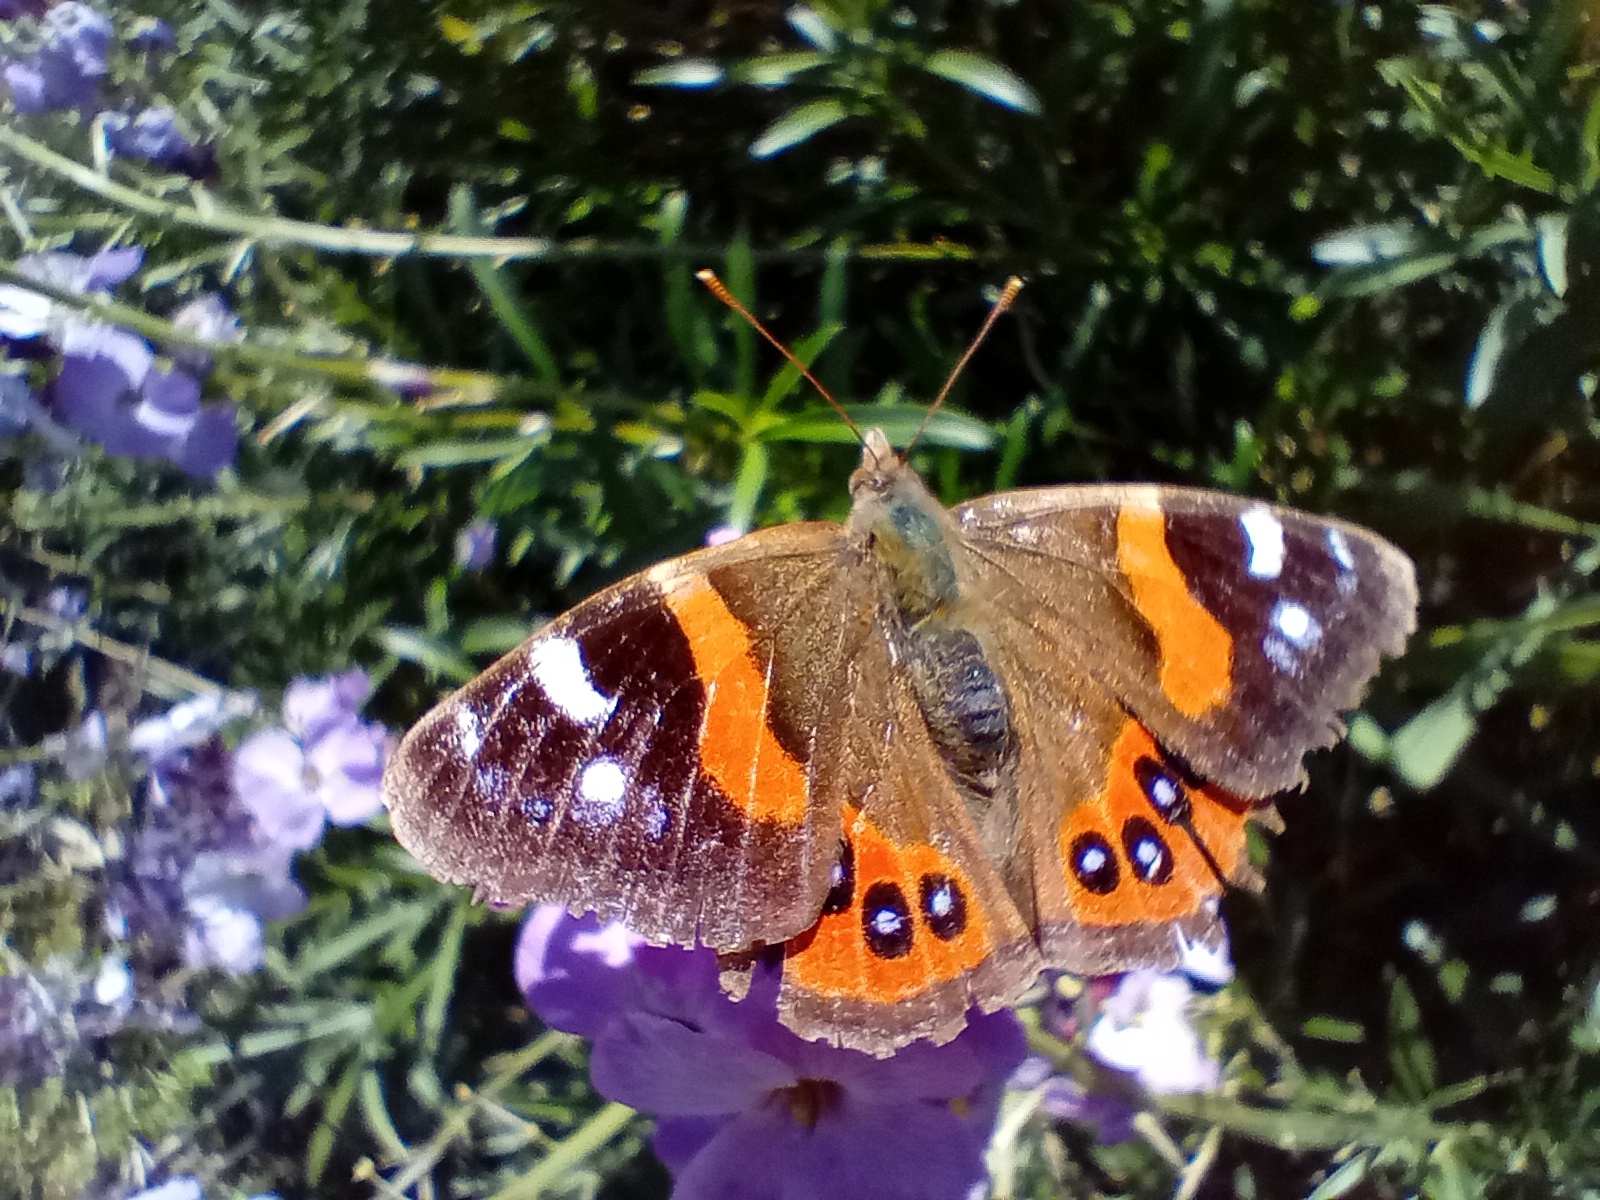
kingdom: Animalia
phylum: Arthropoda
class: Insecta
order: Lepidoptera
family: Nymphalidae
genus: Vanessa
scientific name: Vanessa gonerilla
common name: New zealand red admiral
